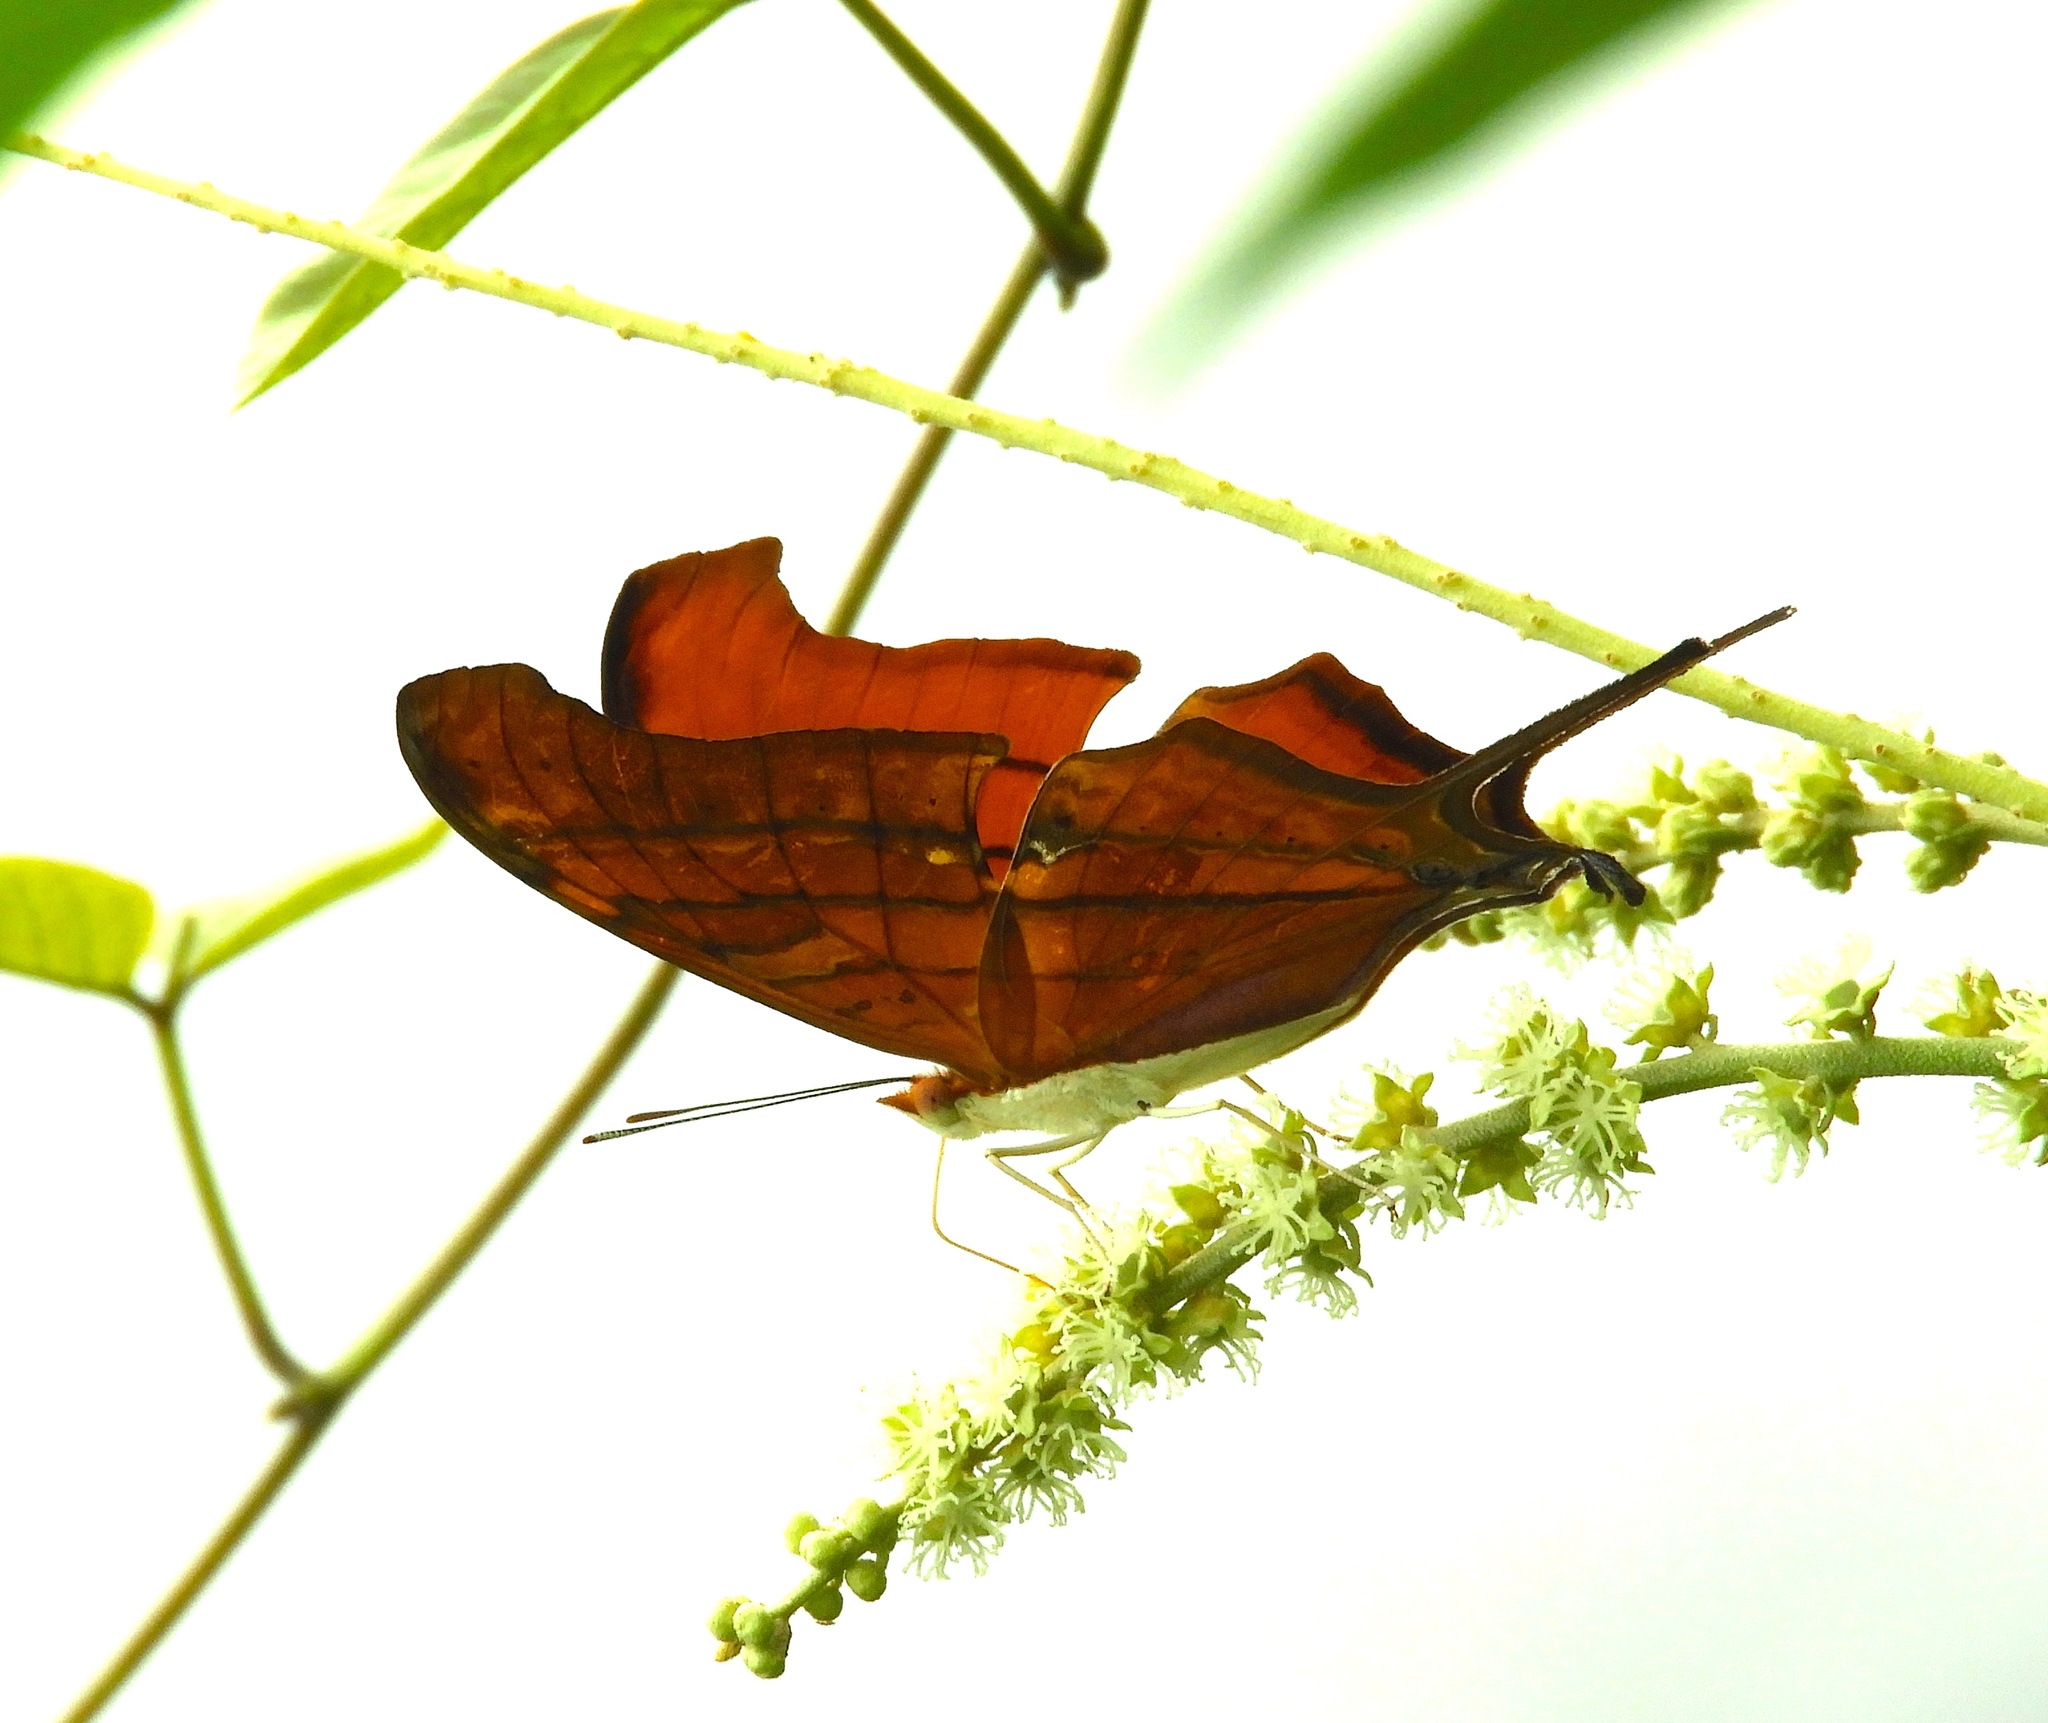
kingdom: Animalia
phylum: Arthropoda
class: Insecta
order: Lepidoptera
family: Nymphalidae
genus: Marpesia
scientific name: Marpesia petreus
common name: Red dagger wing
